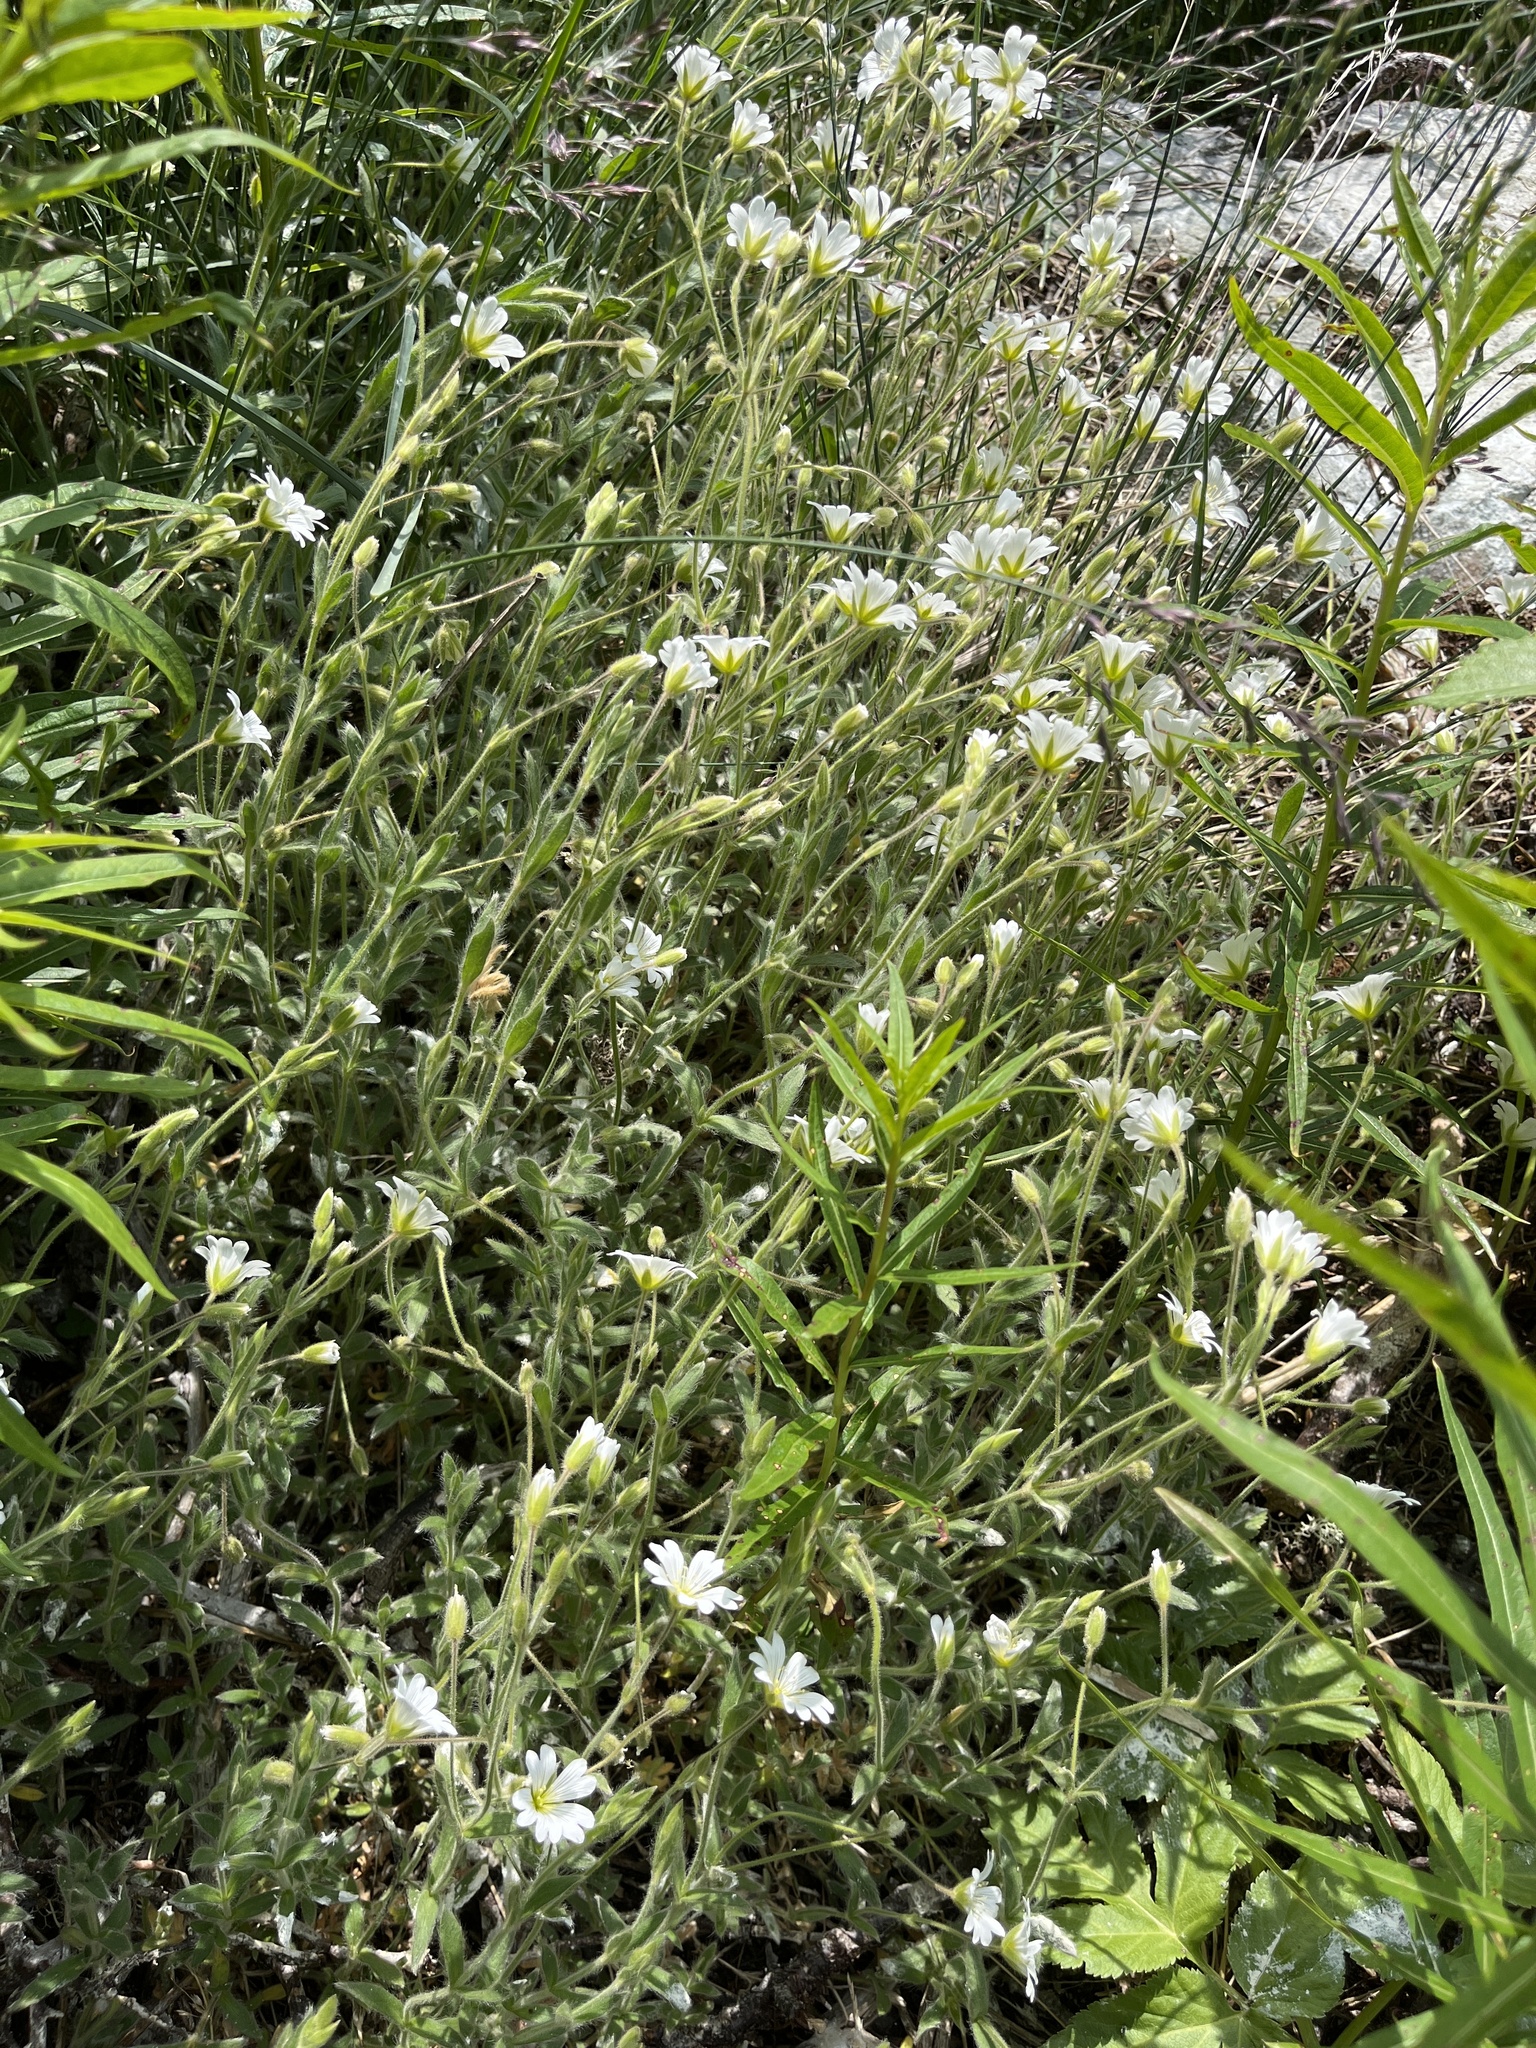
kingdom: Plantae
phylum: Tracheophyta
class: Magnoliopsida
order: Caryophyllales
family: Caryophyllaceae
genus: Cerastium
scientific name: Cerastium alpinum
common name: Alpine mouse-ear
